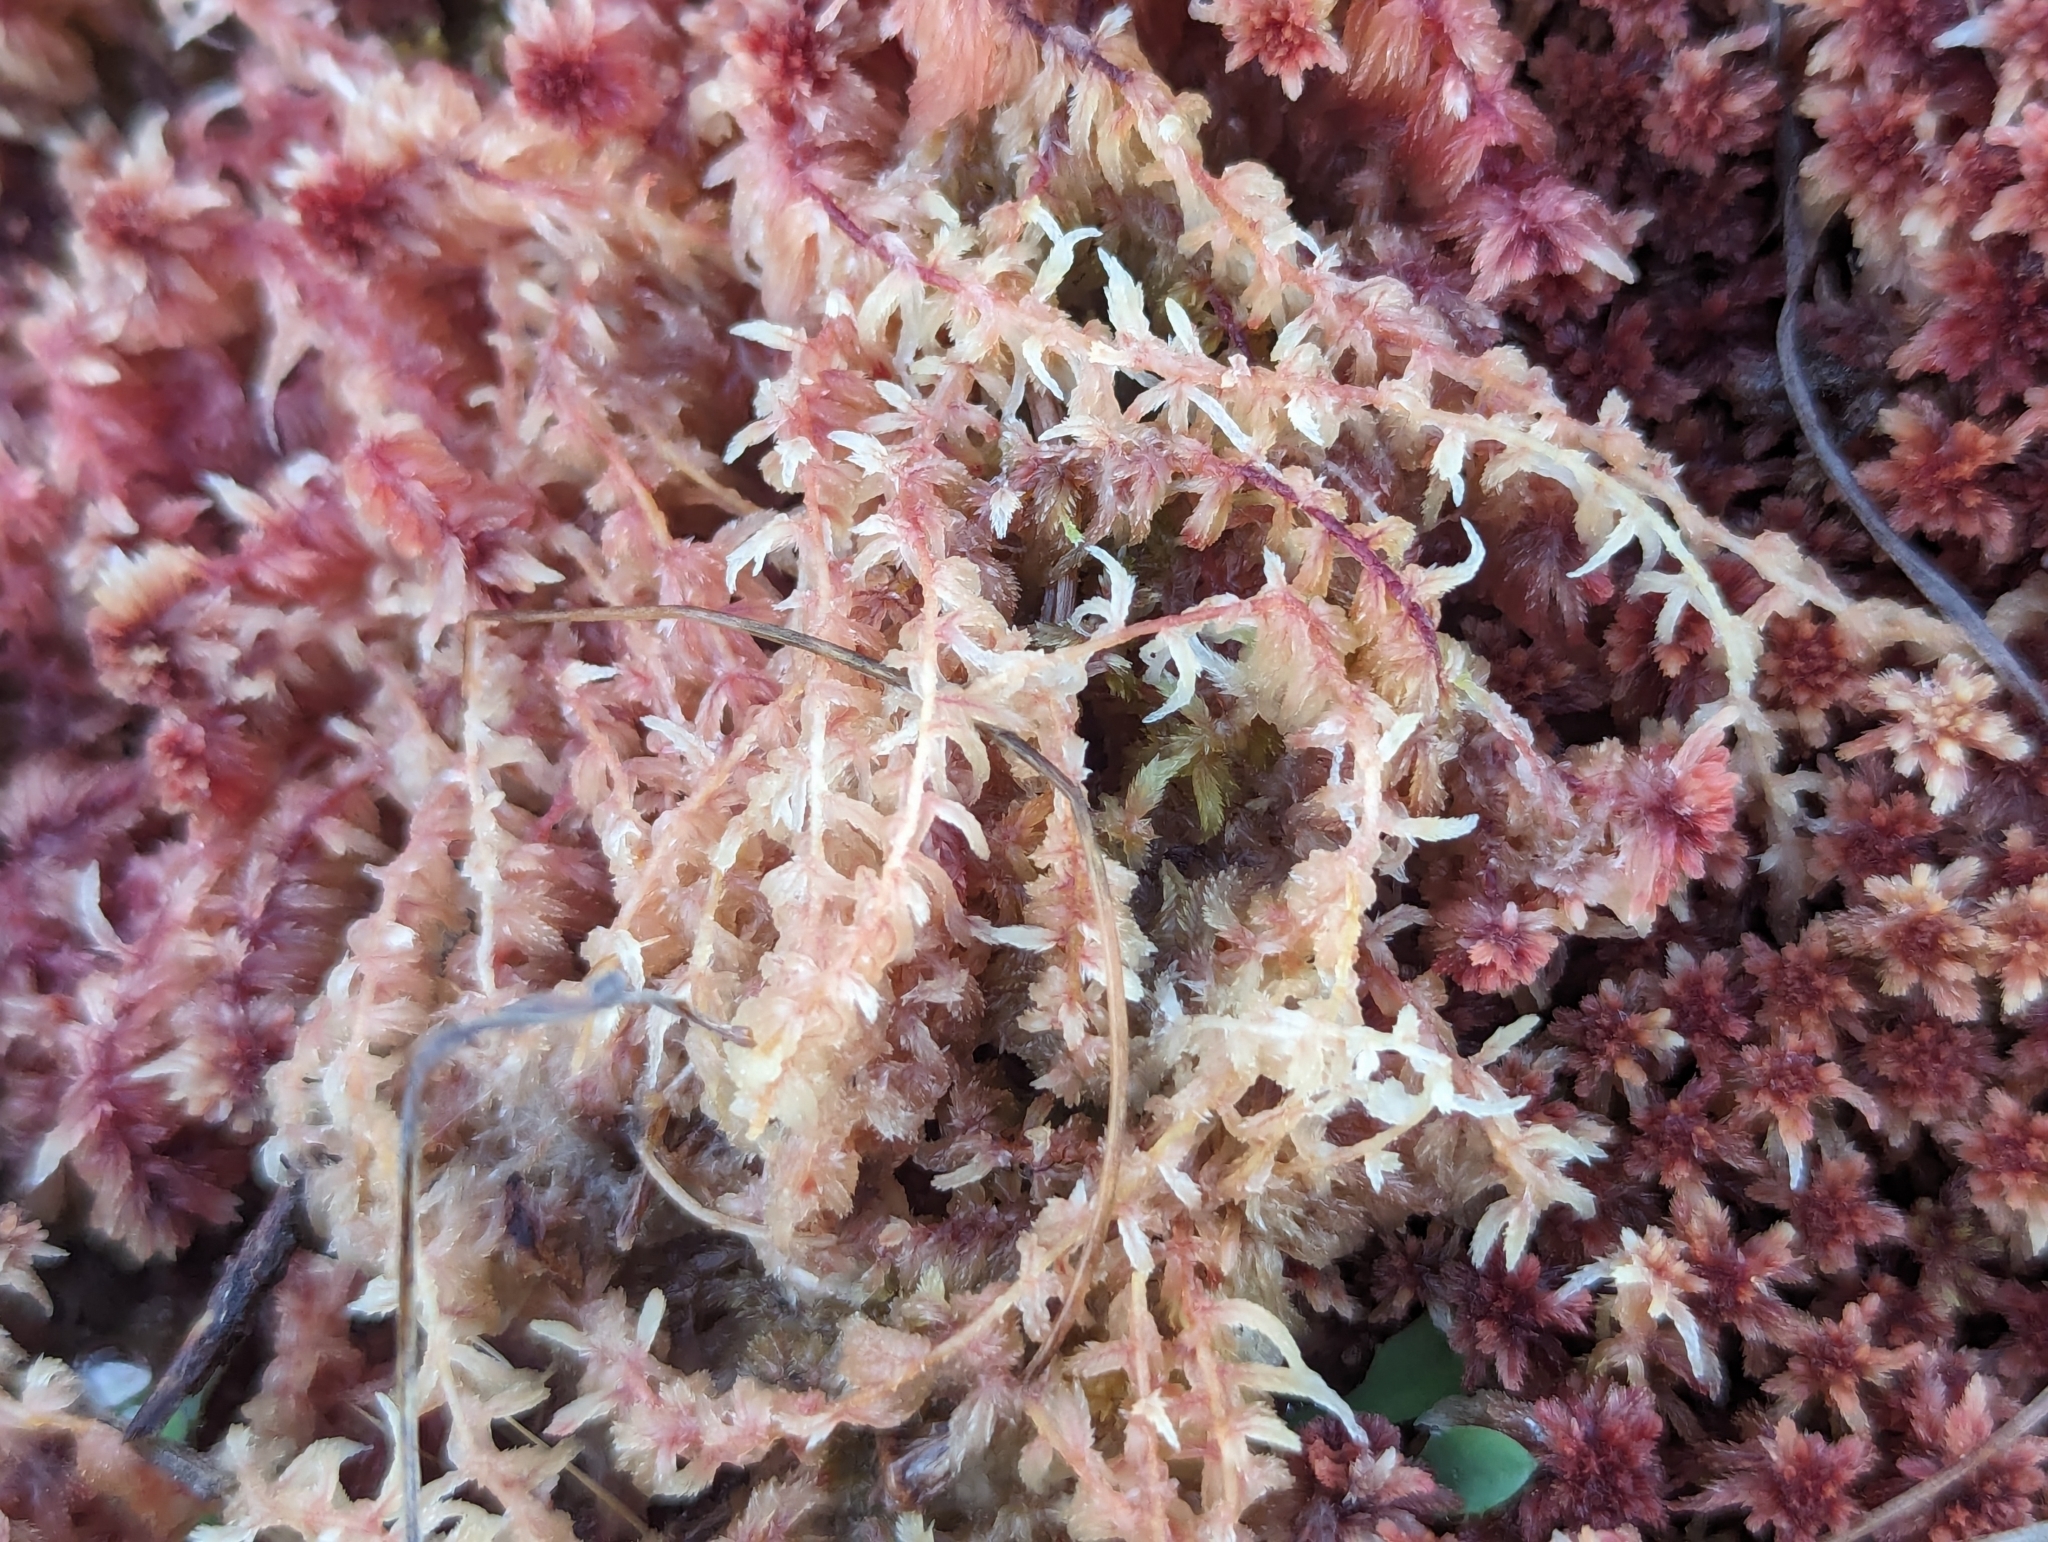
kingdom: Plantae
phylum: Bryophyta
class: Sphagnopsida
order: Sphagnales
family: Sphagnaceae
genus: Sphagnum
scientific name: Sphagnum rubellum
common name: Red peat moss
